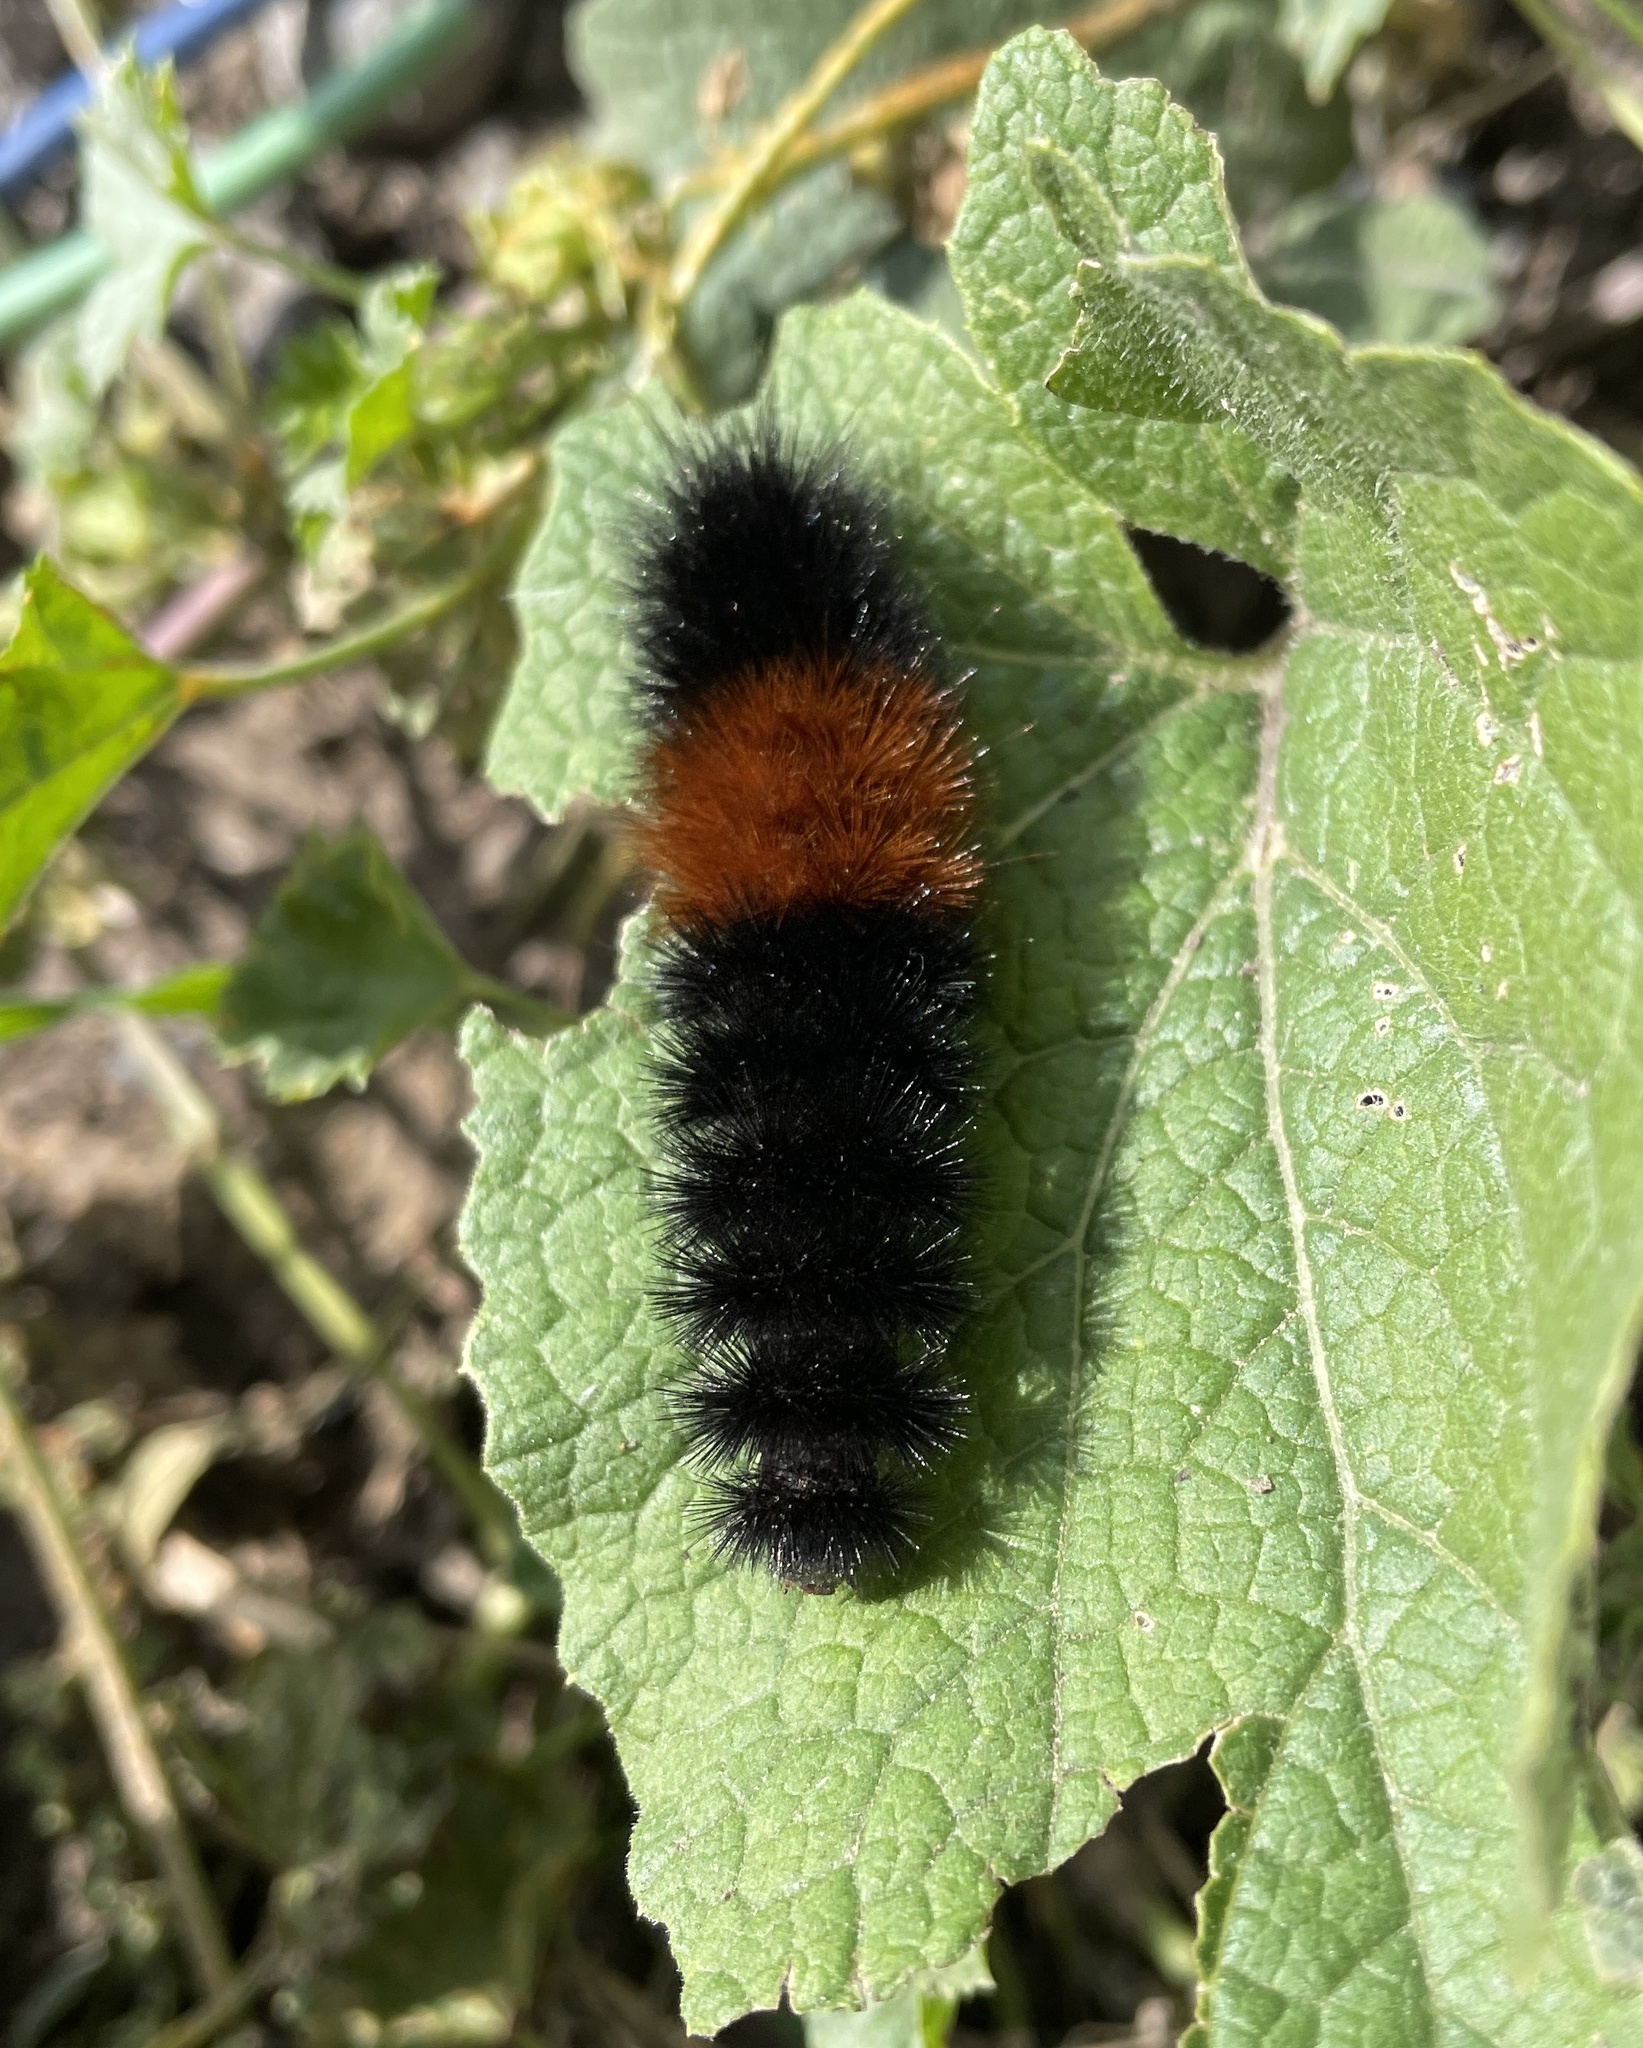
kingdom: Animalia
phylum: Arthropoda
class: Insecta
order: Lepidoptera
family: Erebidae
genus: Pyrrharctia
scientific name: Pyrrharctia isabella
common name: Isabella tiger moth
